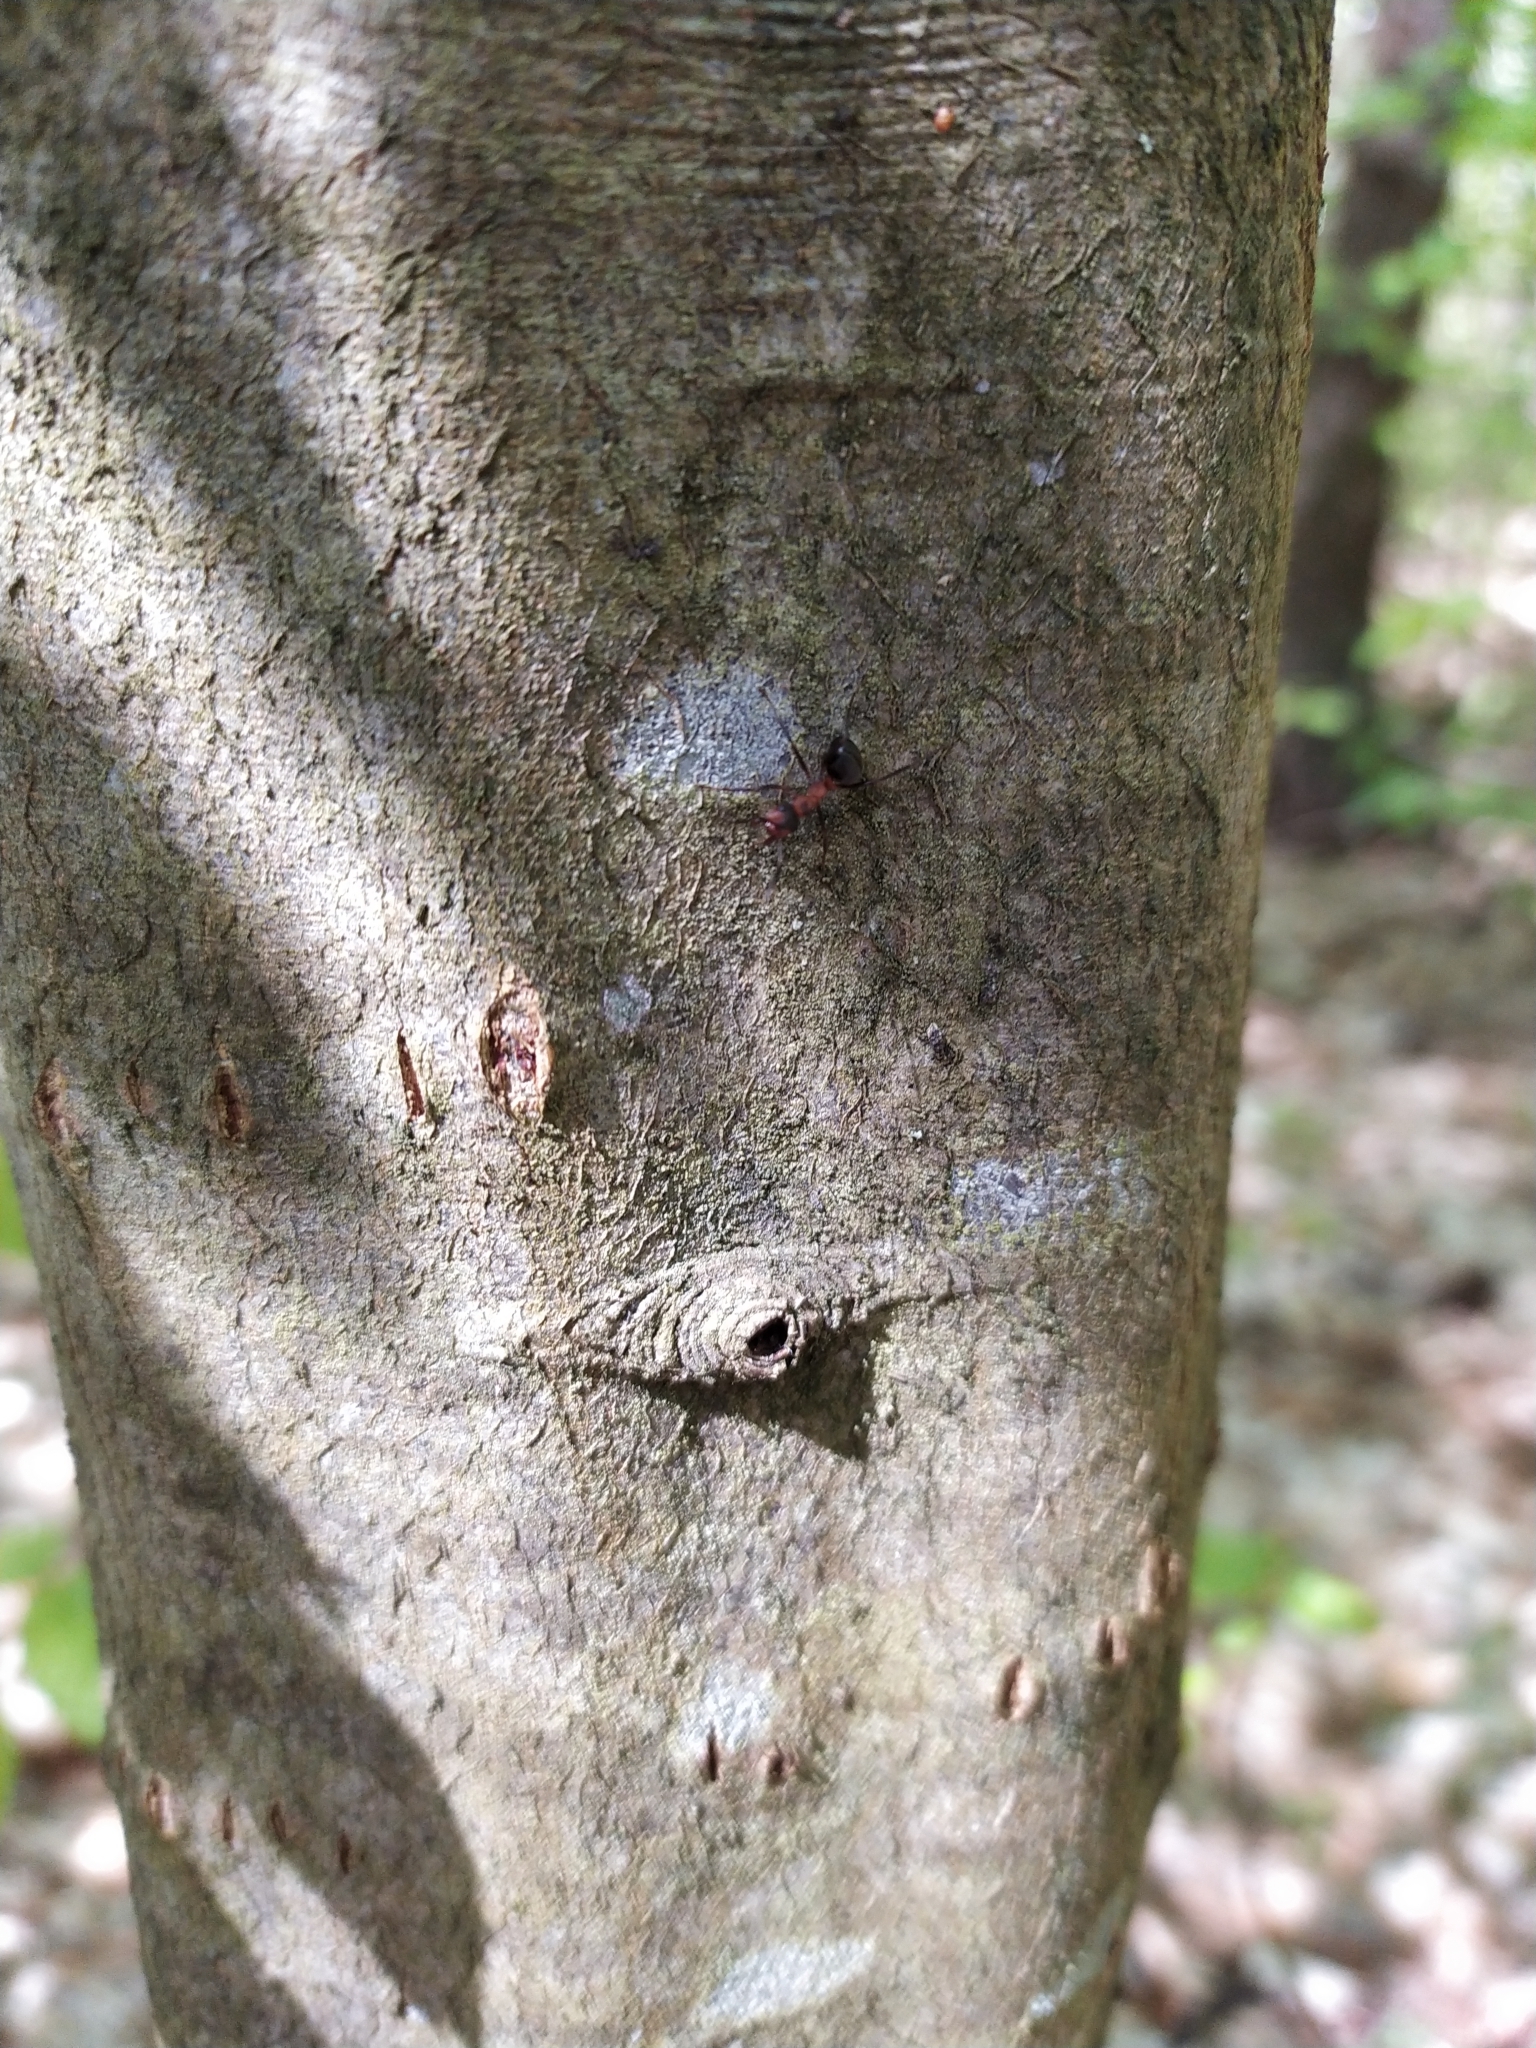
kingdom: Plantae
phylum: Tracheophyta
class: Magnoliopsida
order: Fagales
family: Betulaceae
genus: Carpinus
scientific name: Carpinus betulus
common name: Hornbeam
